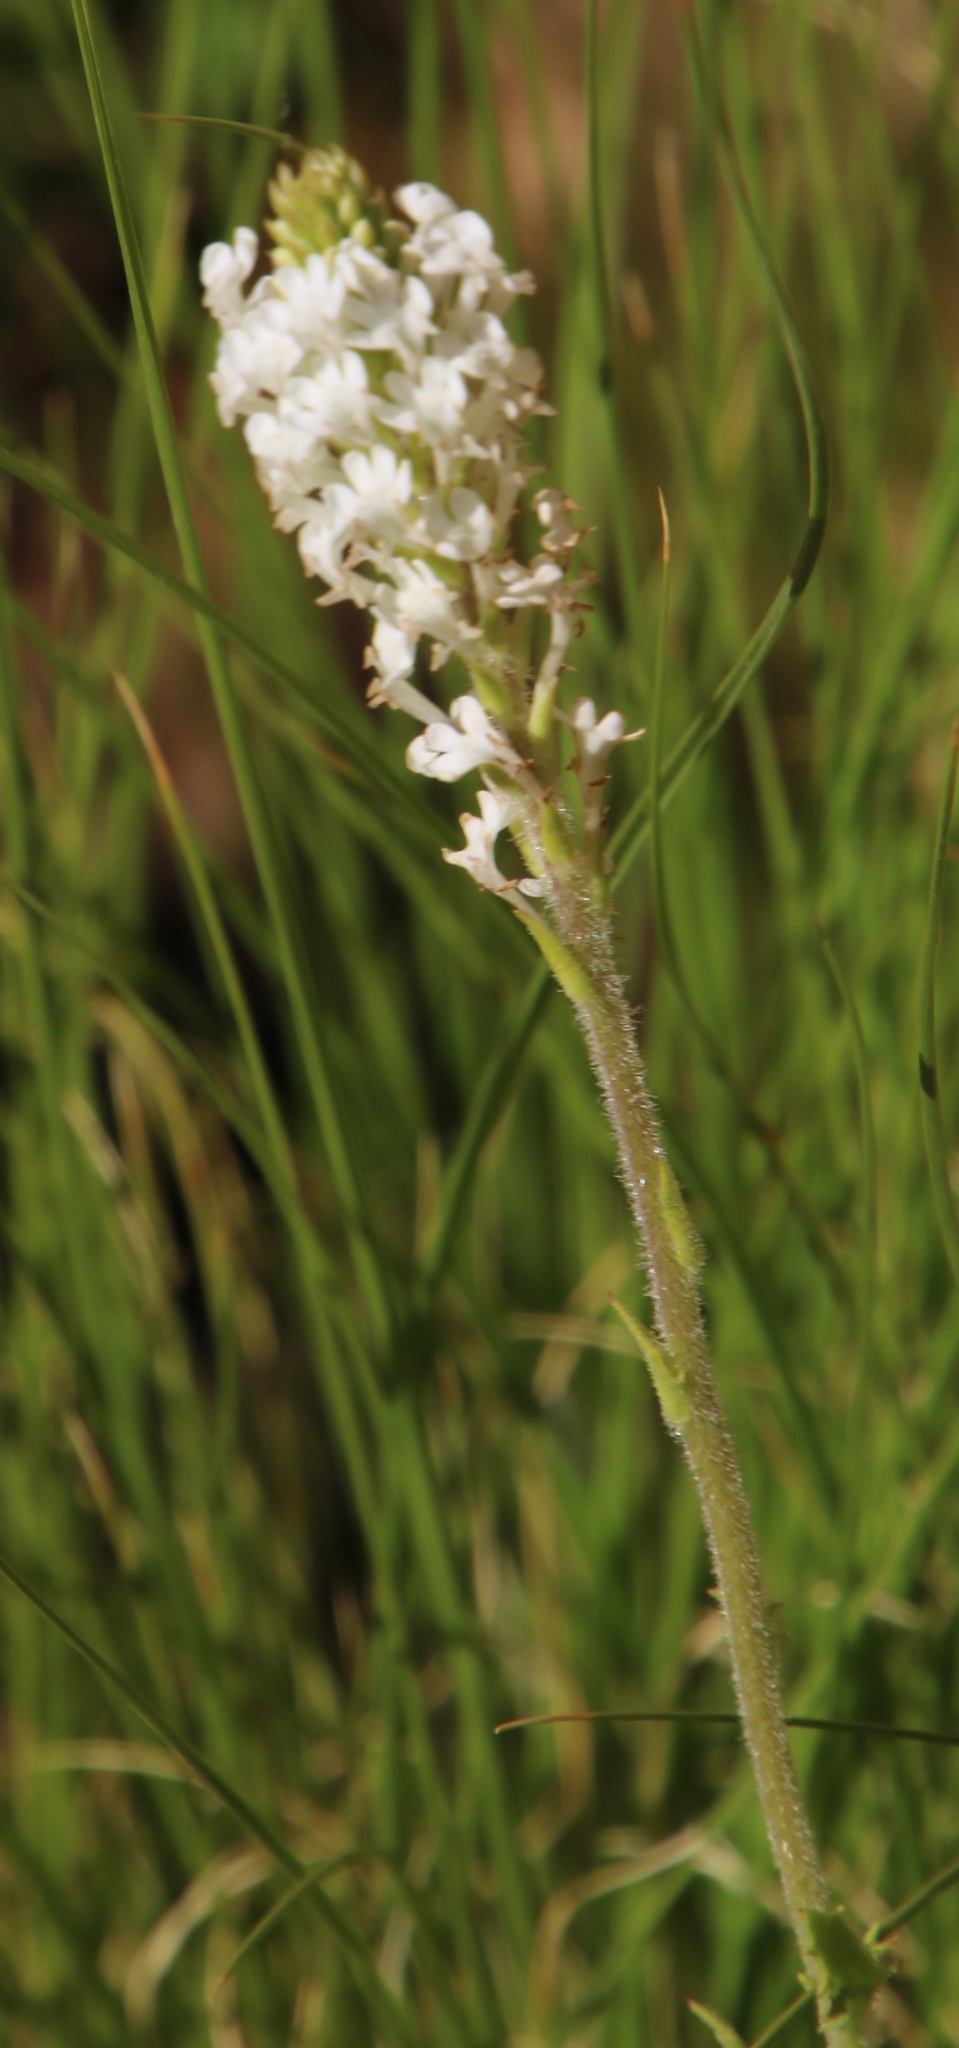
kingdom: Plantae
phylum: Tracheophyta
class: Magnoliopsida
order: Lamiales
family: Scrophulariaceae
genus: Hebenstretia
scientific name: Hebenstretia lanceolata
